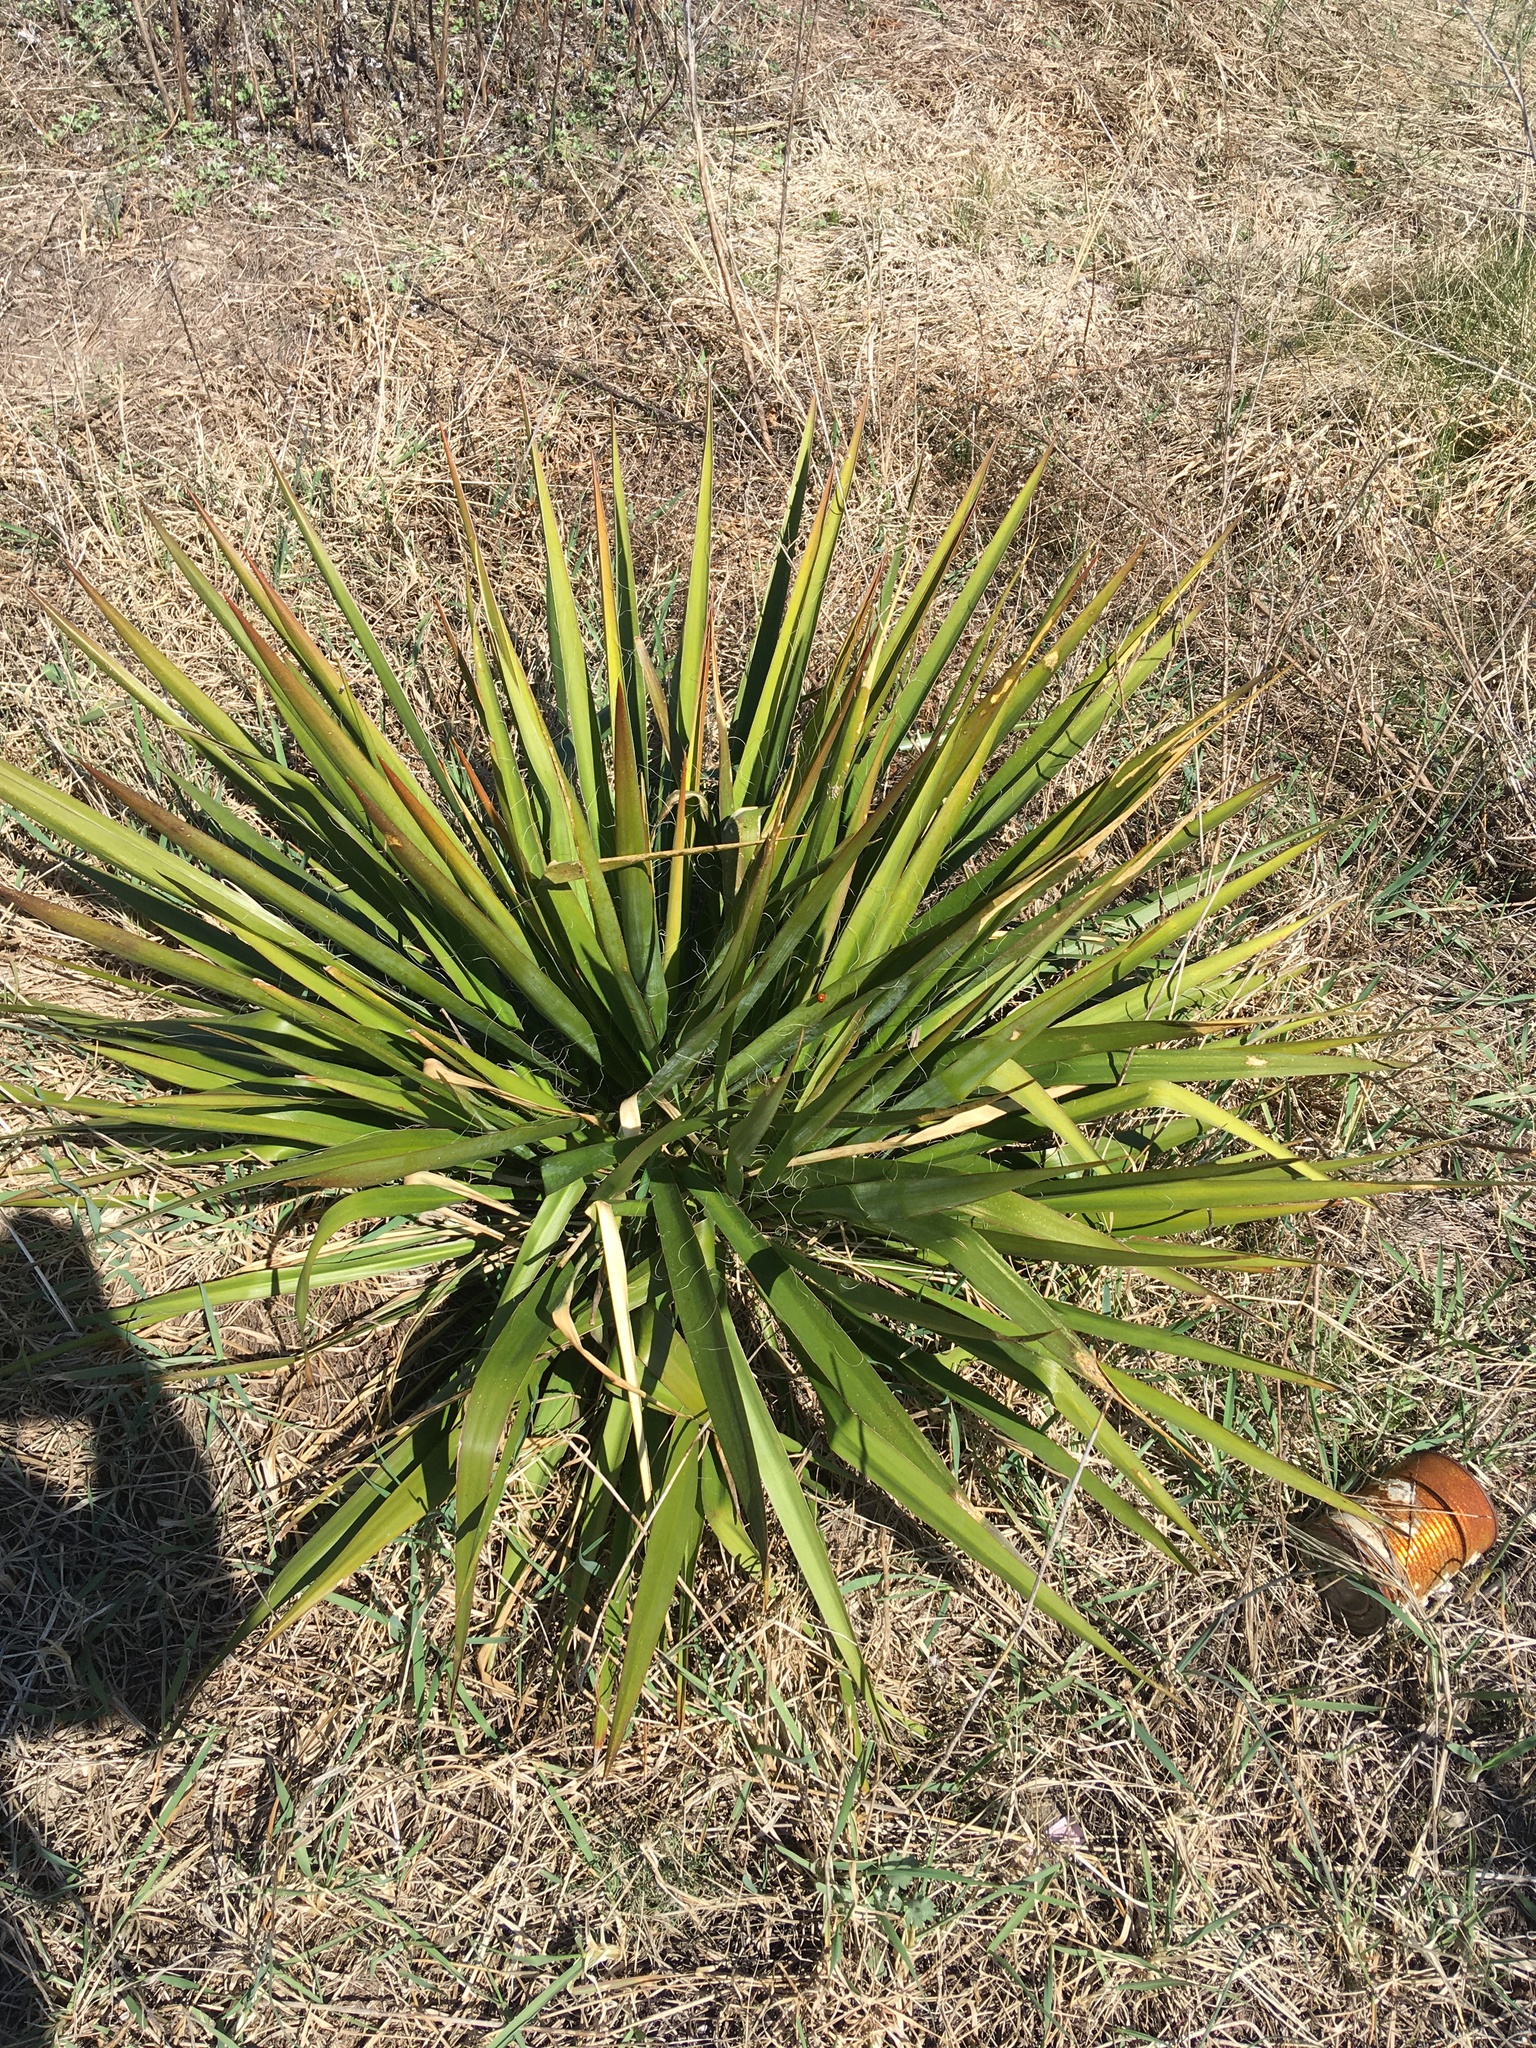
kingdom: Plantae
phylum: Tracheophyta
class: Liliopsida
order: Asparagales
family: Asparagaceae
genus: Yucca
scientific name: Yucca filamentosa
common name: Adam's-needle
